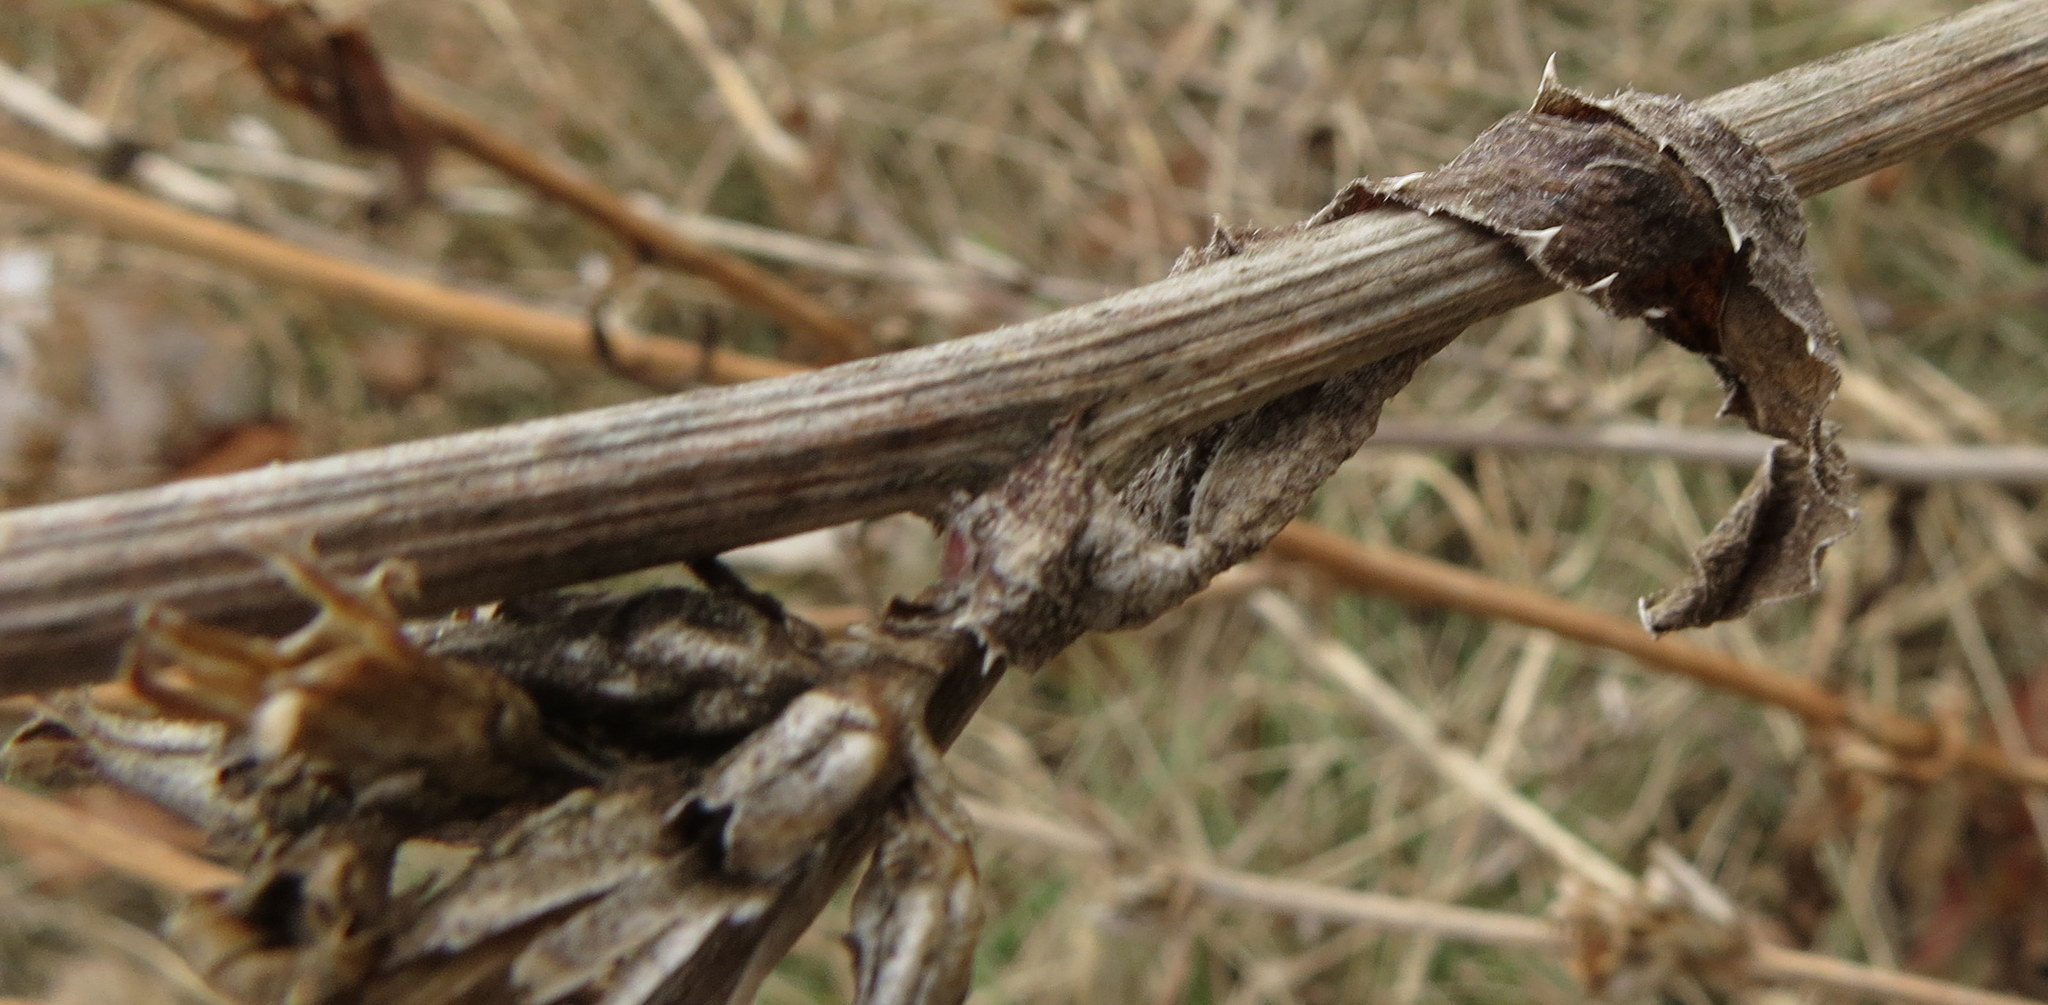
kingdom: Plantae
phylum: Tracheophyta
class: Magnoliopsida
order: Asterales
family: Asteraceae
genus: Cichorium
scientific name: Cichorium intybus
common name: Chicory
